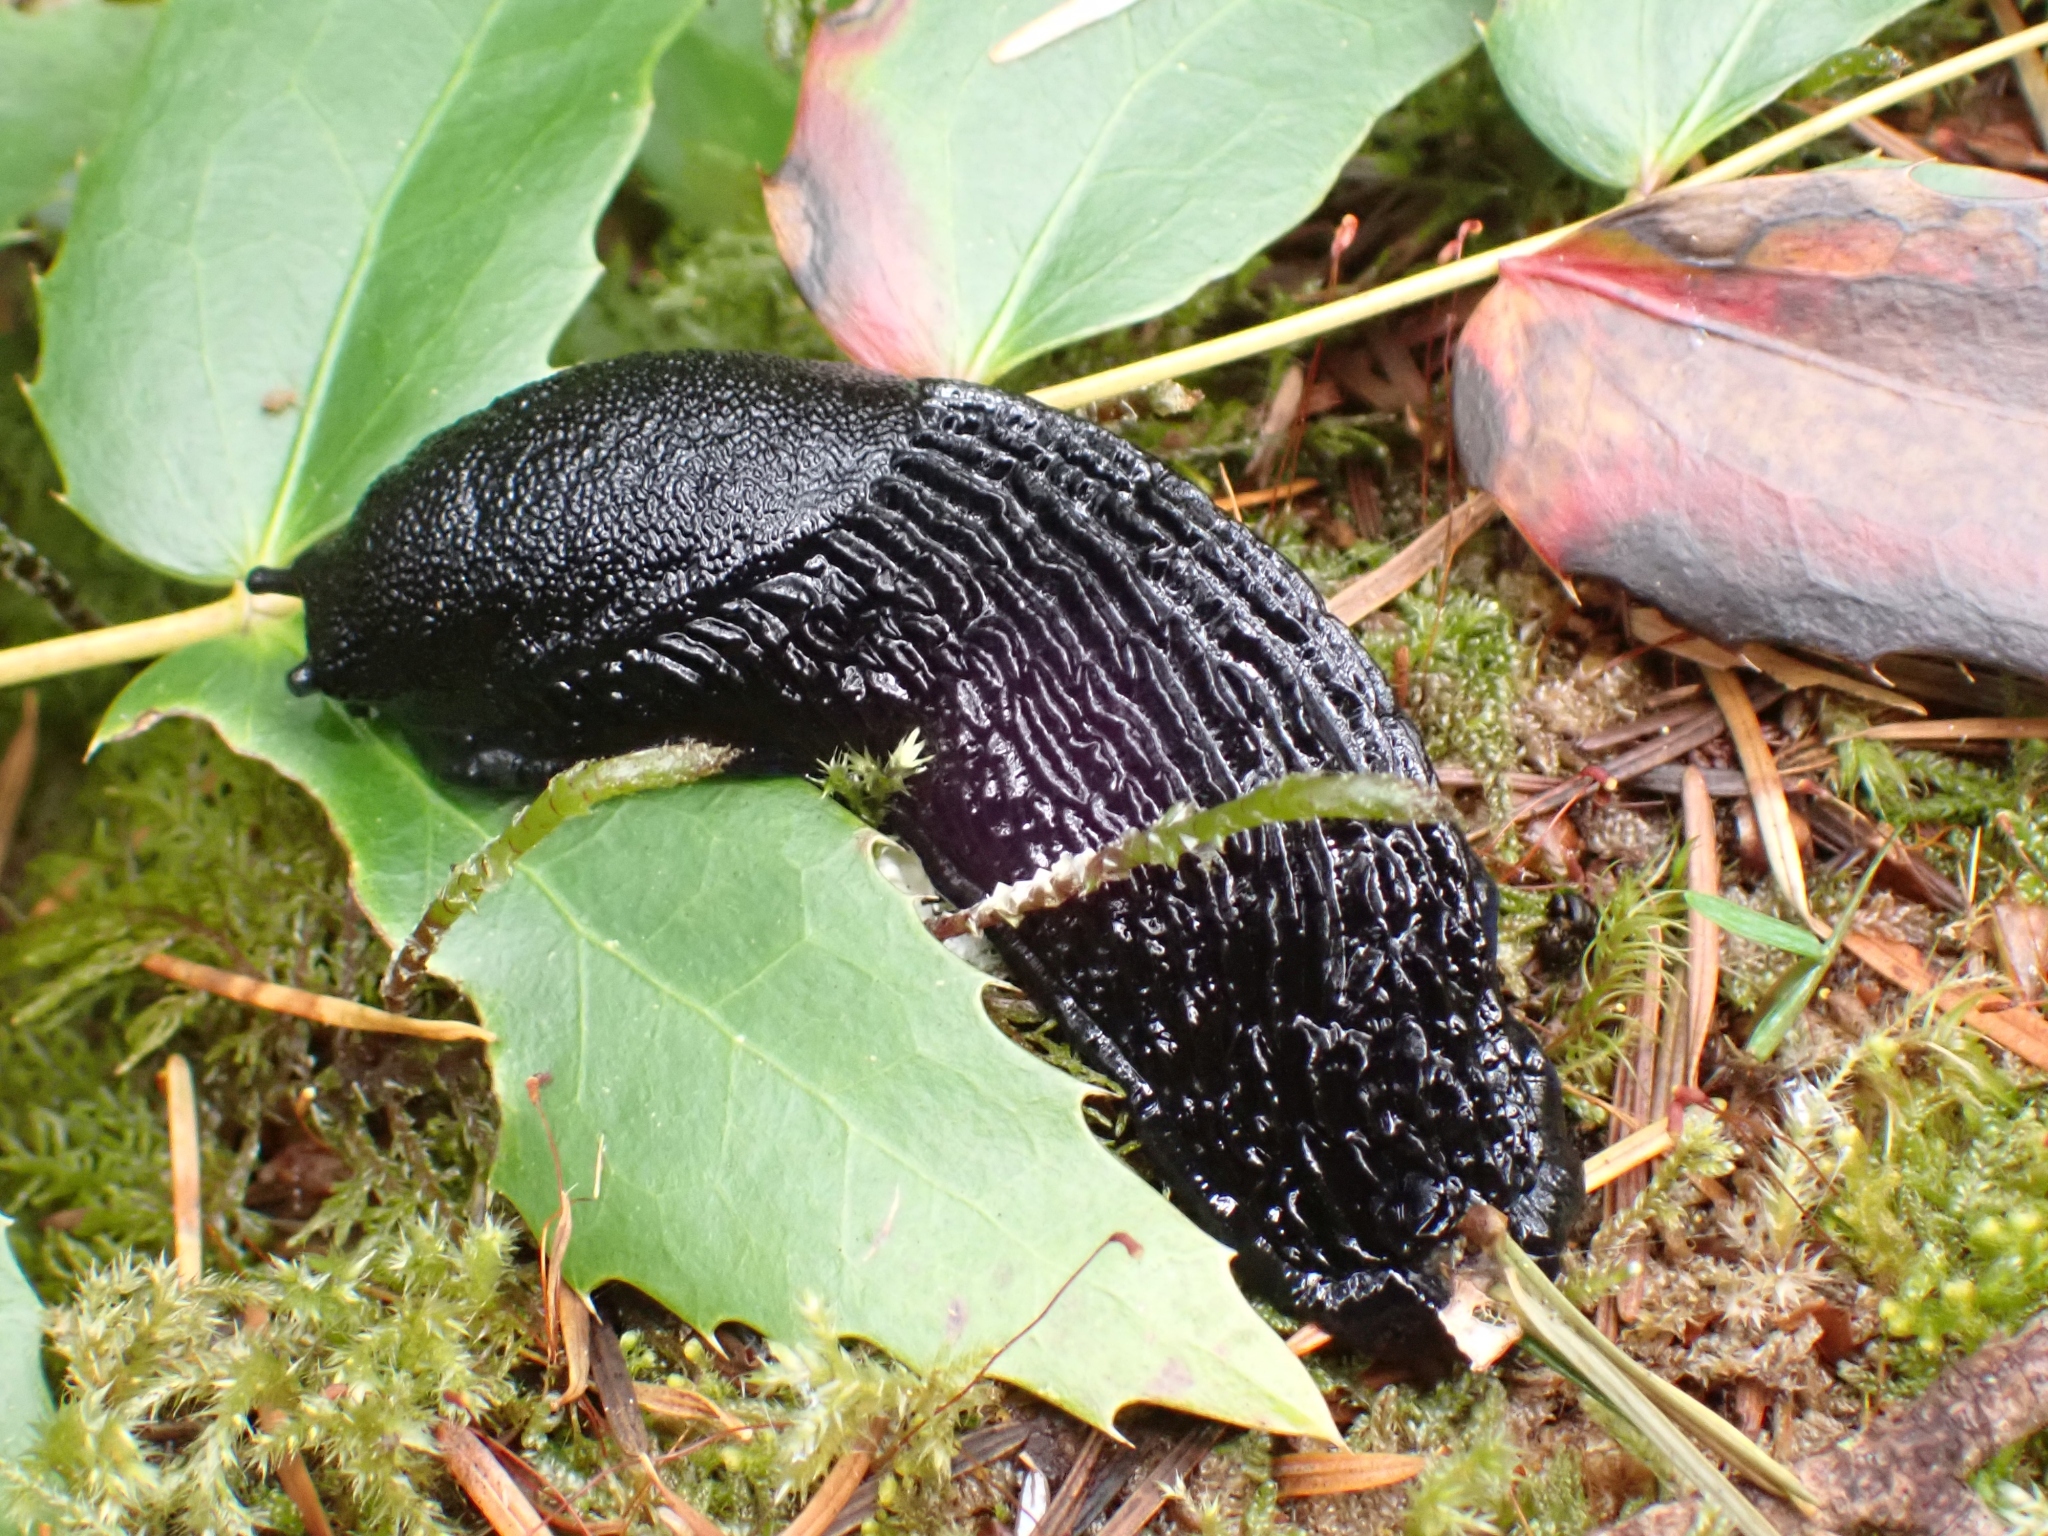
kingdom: Animalia
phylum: Mollusca
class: Gastropoda
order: Stylommatophora
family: Arionidae
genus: Arion
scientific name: Arion
